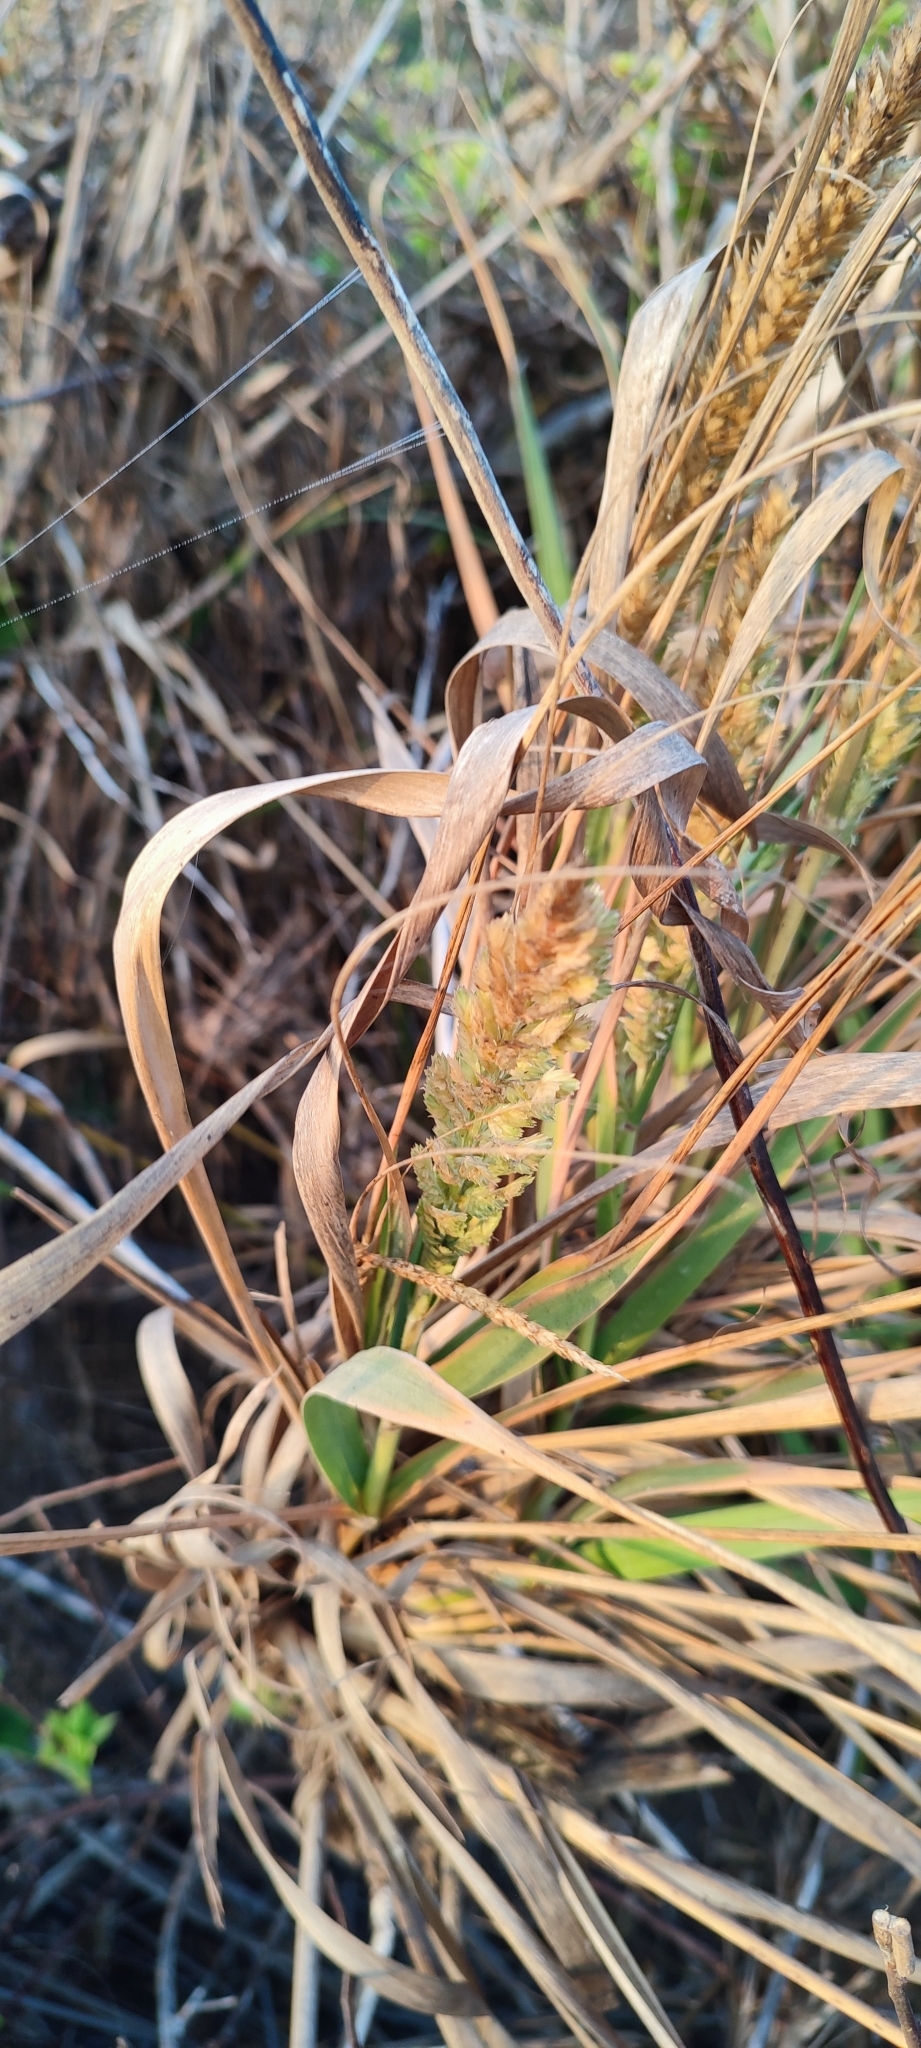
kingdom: Plantae
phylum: Tracheophyta
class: Liliopsida
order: Poales
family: Poaceae
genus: Uniola
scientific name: Uniola pittieri
